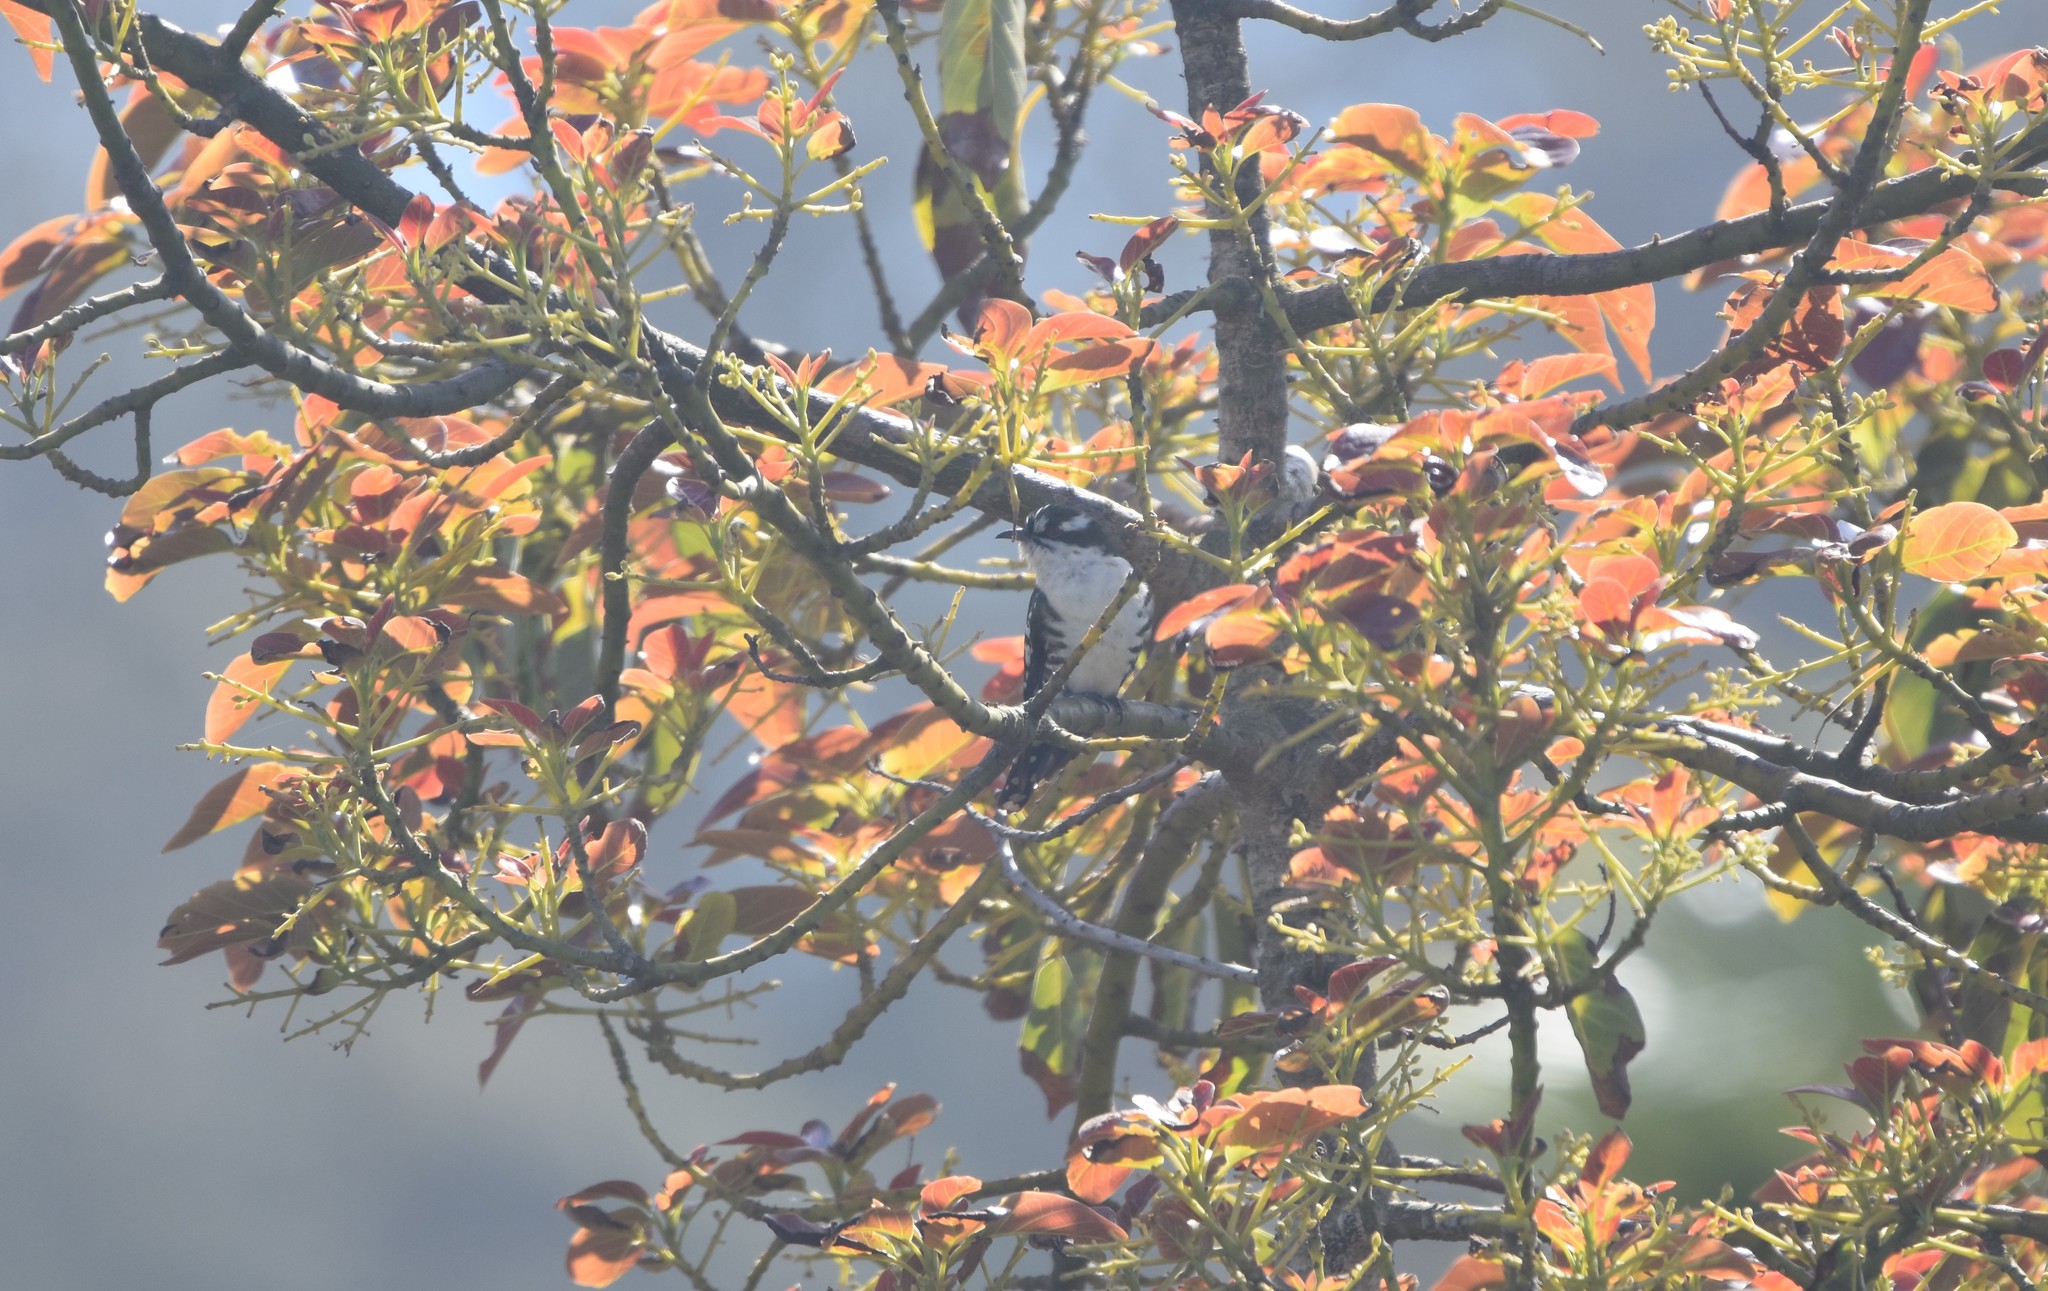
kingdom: Animalia
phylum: Chordata
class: Aves
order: Cuculiformes
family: Cuculidae
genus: Chrysococcyx
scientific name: Chrysococcyx caprius
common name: Diederik cuckoo
